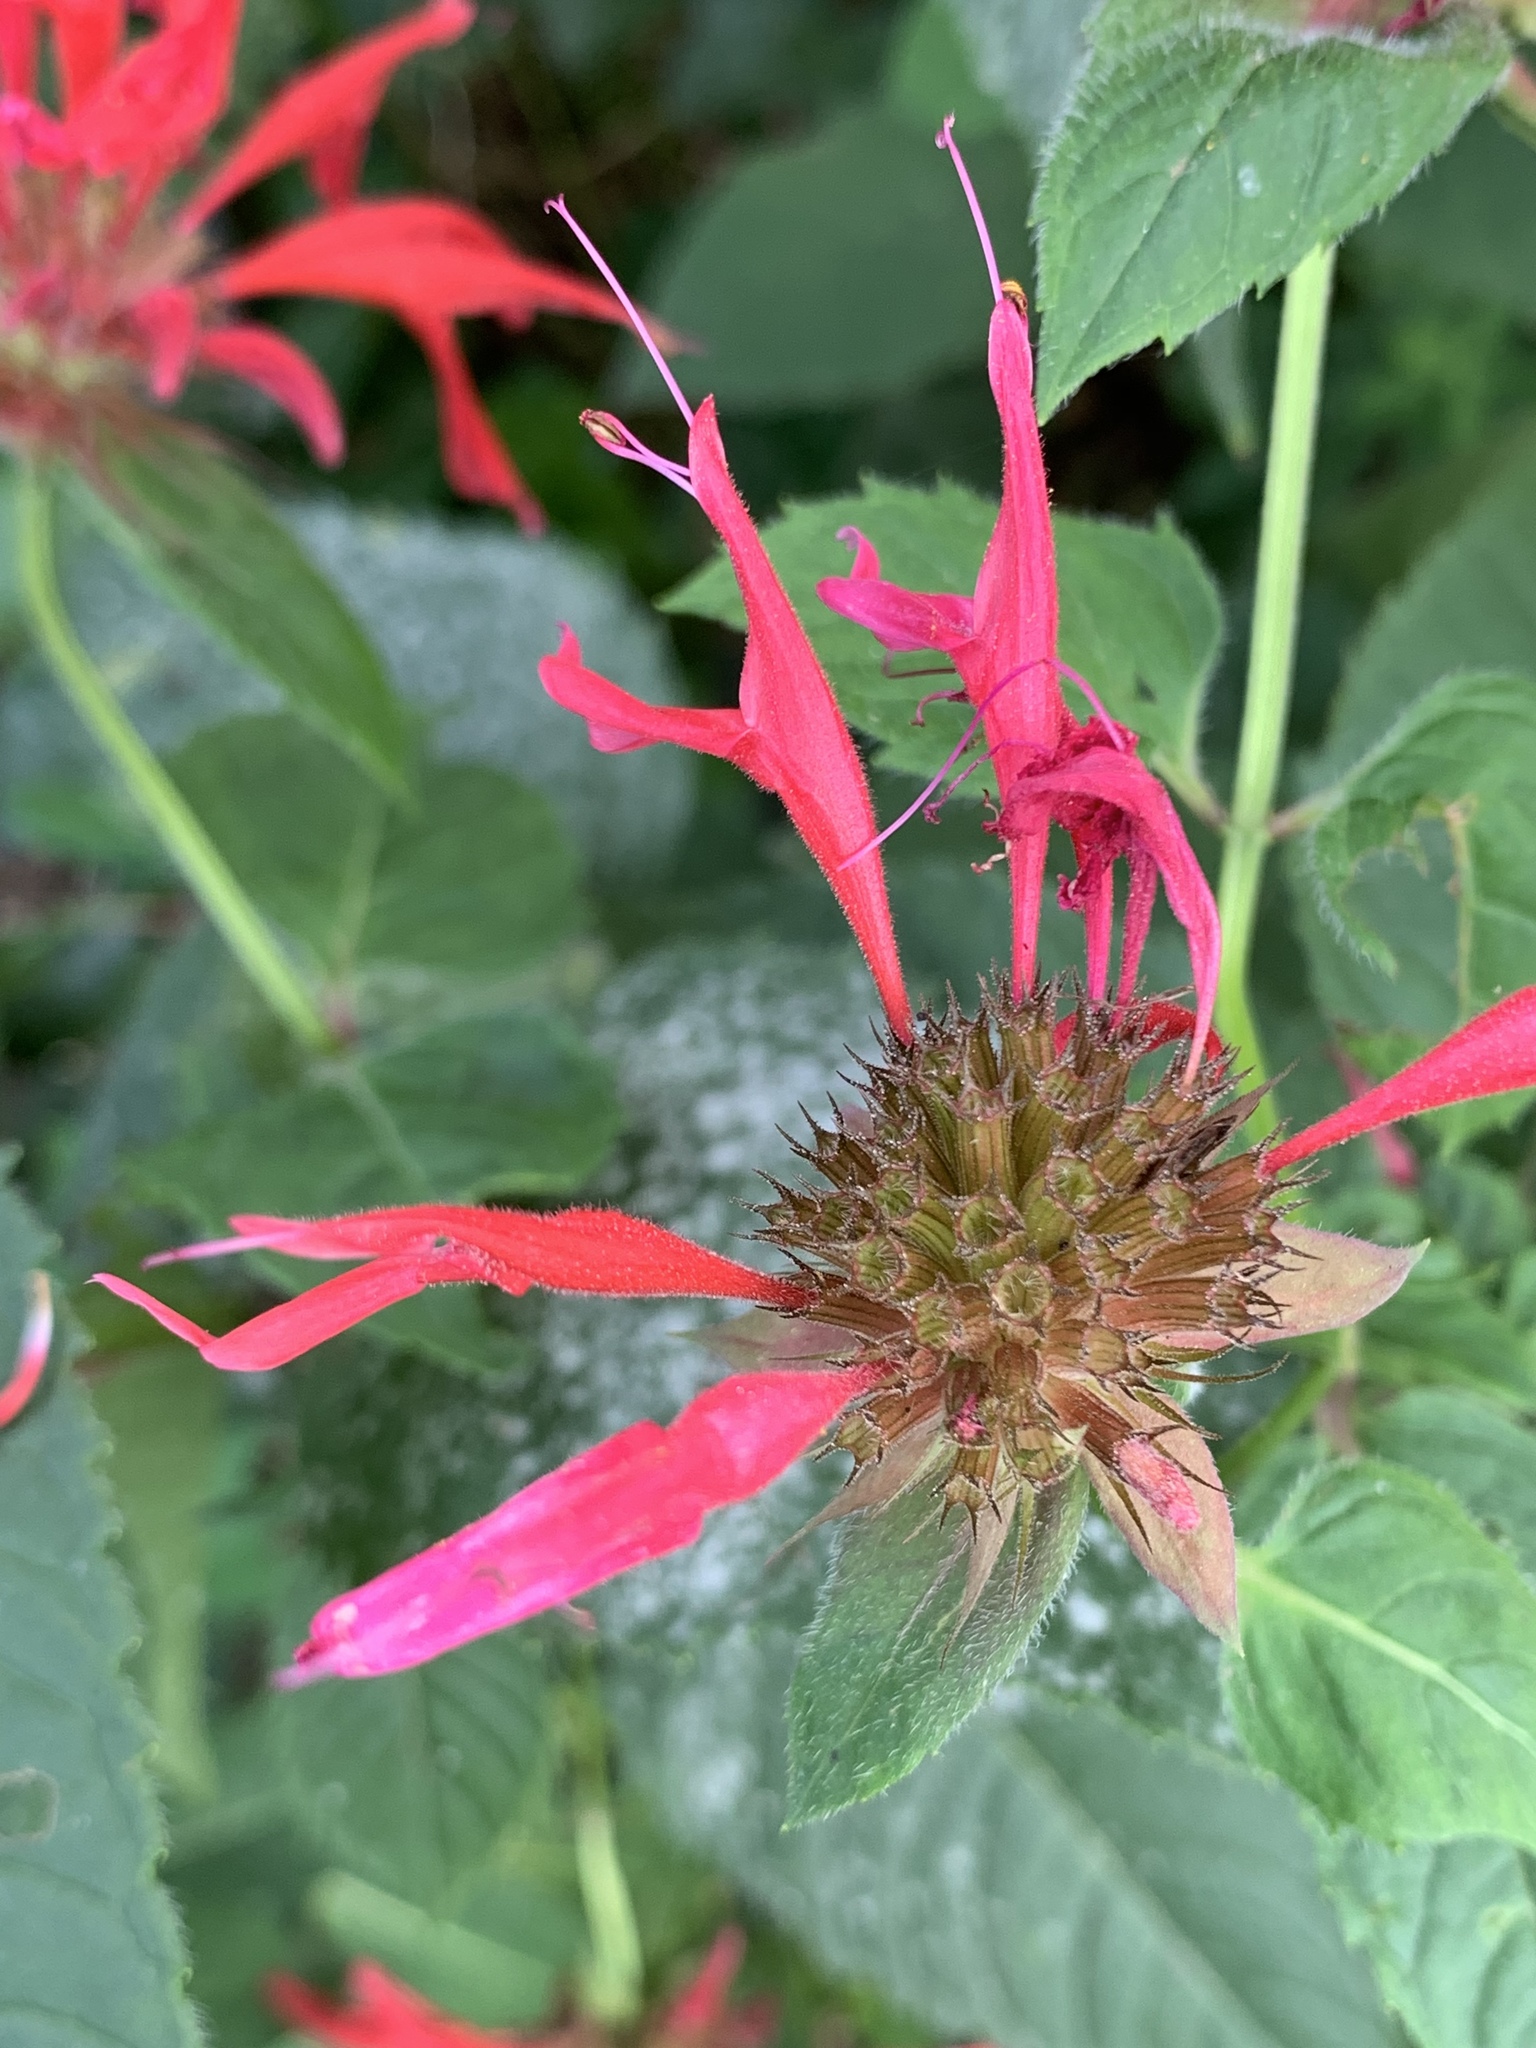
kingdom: Plantae
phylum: Tracheophyta
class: Magnoliopsida
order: Lamiales
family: Lamiaceae
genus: Monarda
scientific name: Monarda didyma
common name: Beebalm
